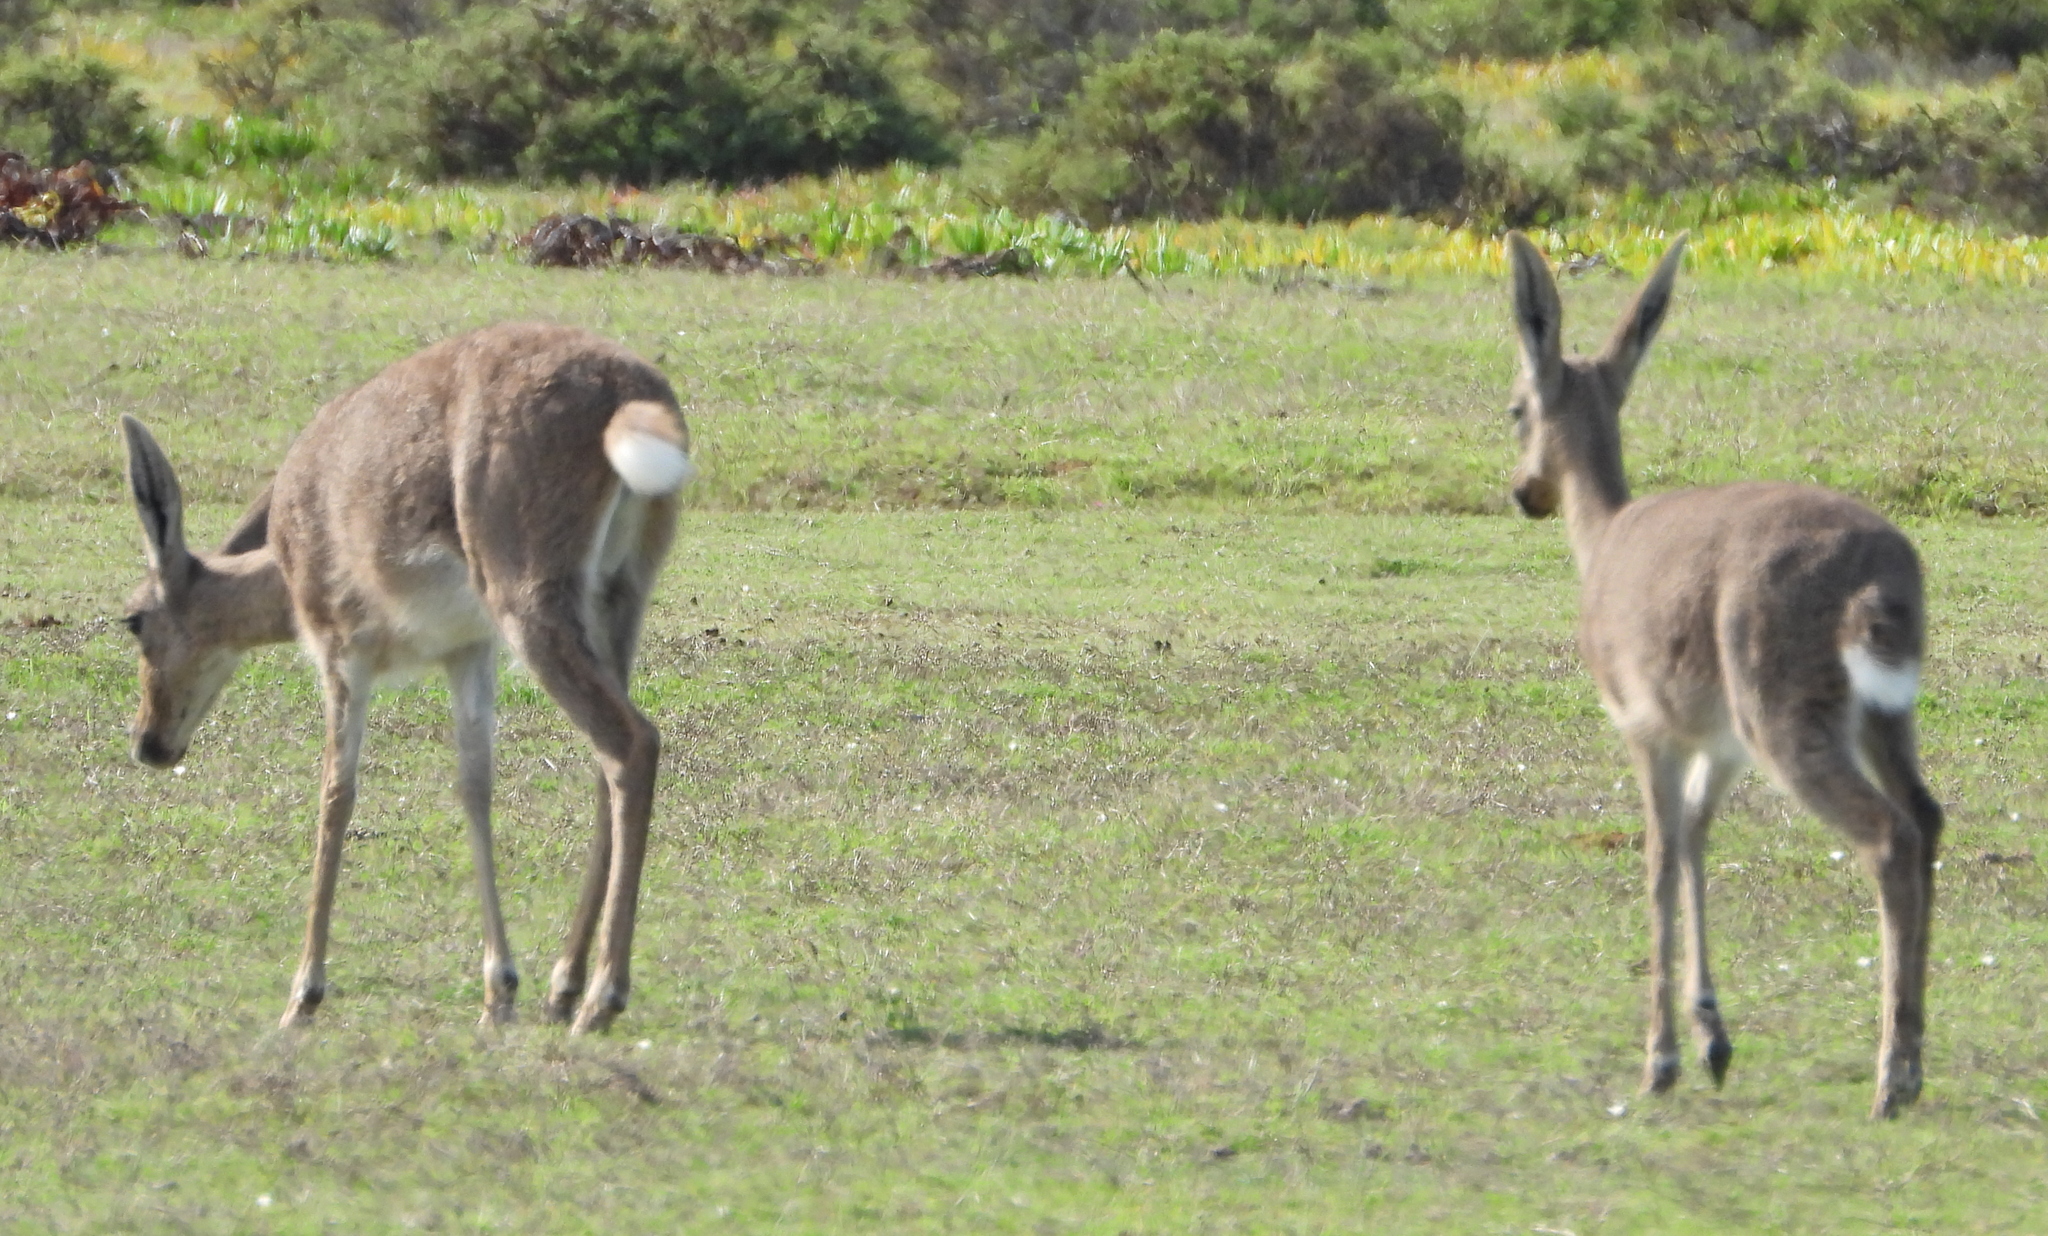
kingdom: Animalia
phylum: Chordata
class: Mammalia
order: Artiodactyla
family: Bovidae
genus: Pelea
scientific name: Pelea capreolus
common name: Common rhebok
